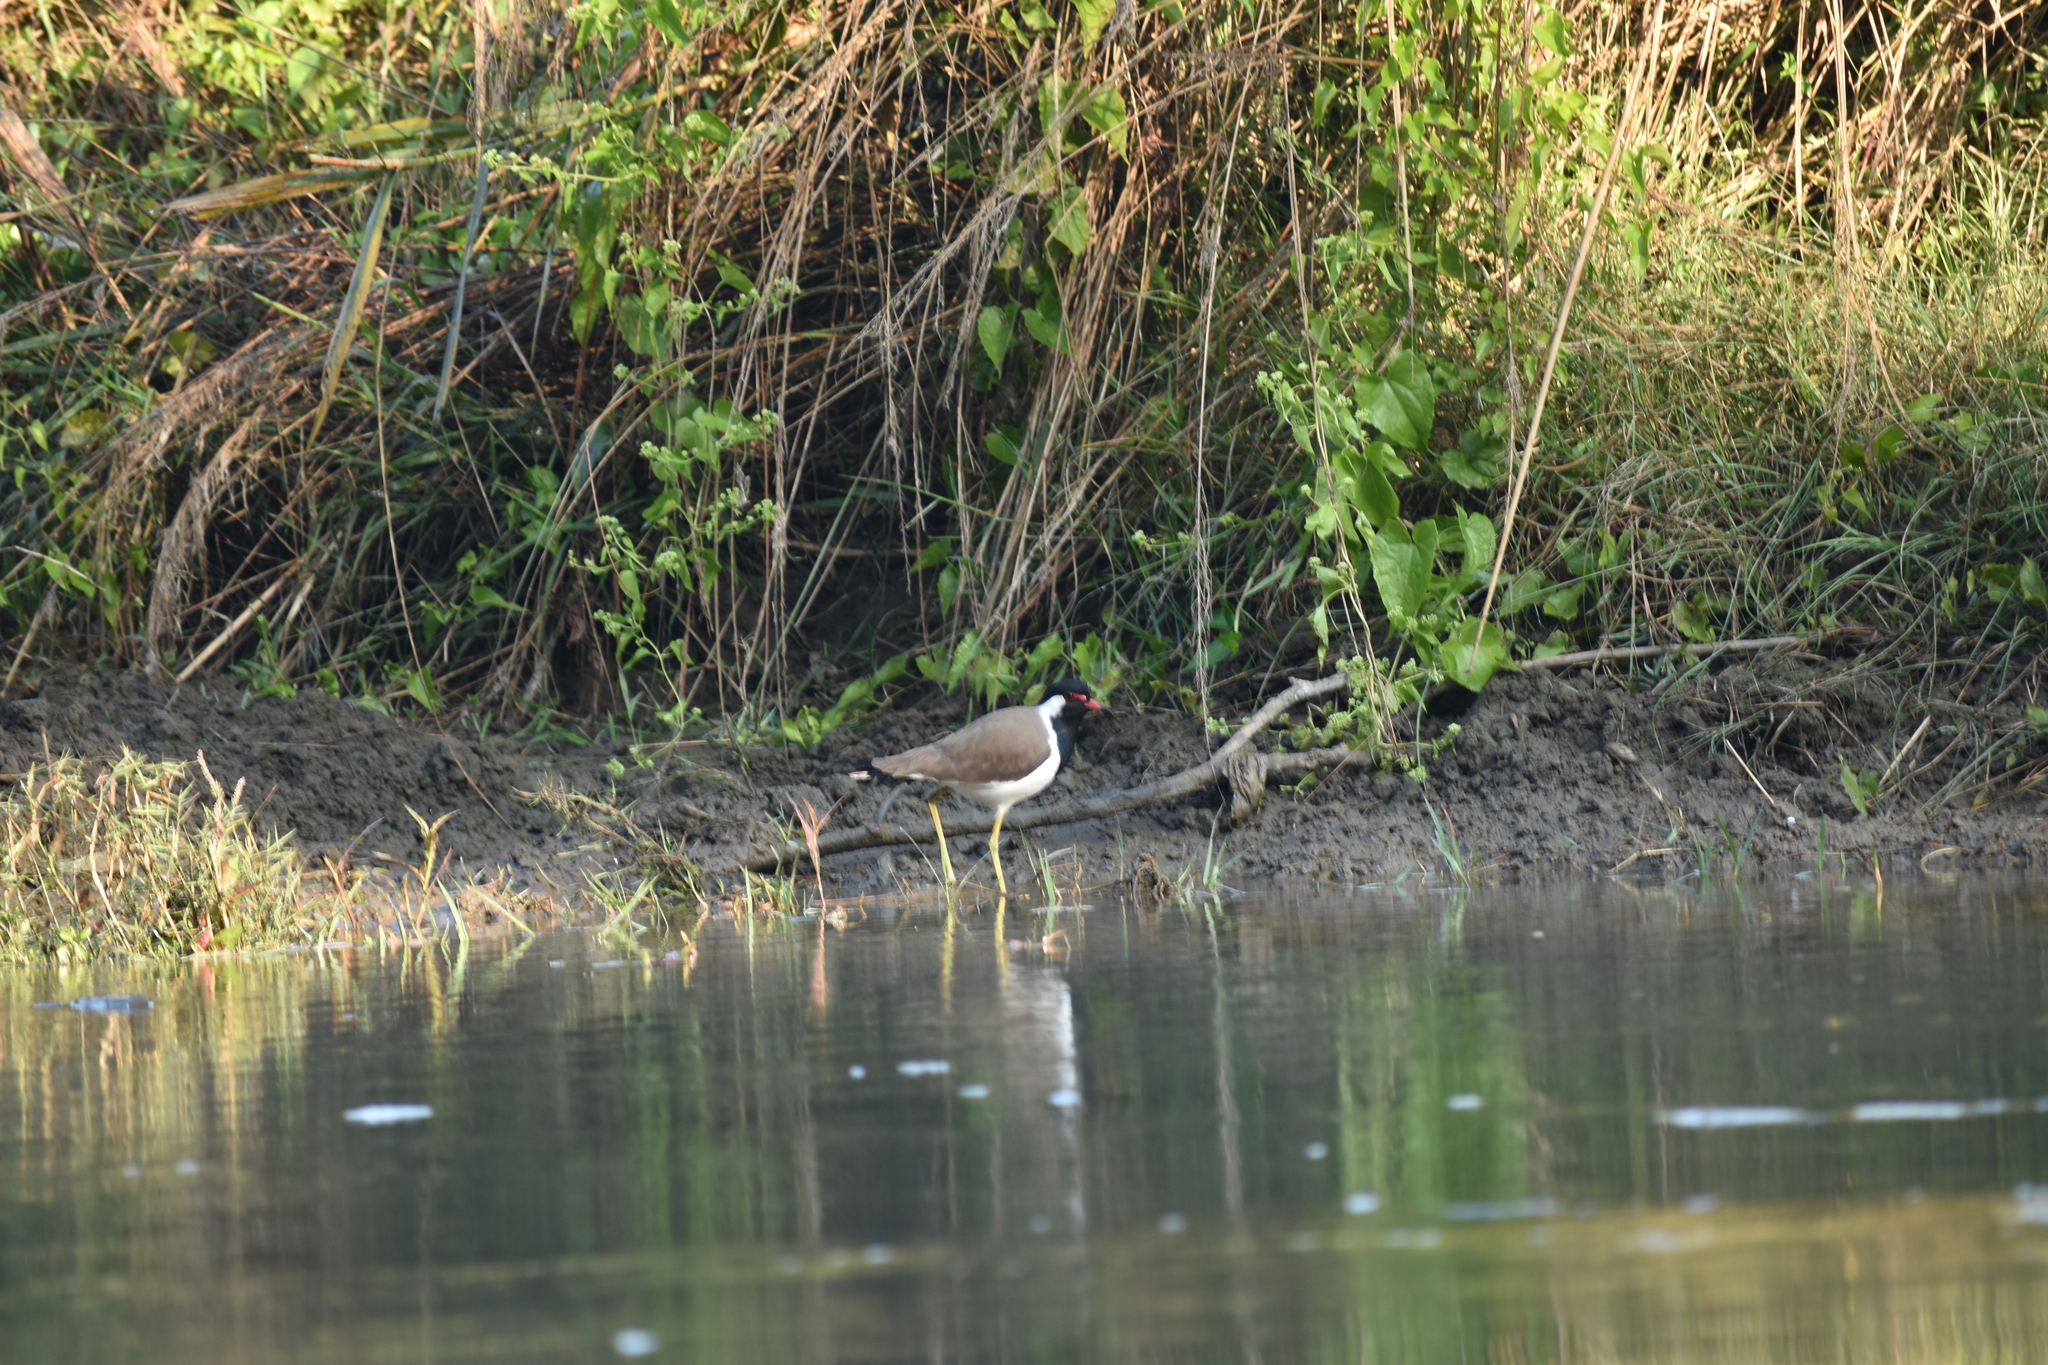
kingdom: Animalia
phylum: Chordata
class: Aves
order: Charadriiformes
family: Charadriidae
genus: Vanellus
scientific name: Vanellus indicus
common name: Red-wattled lapwing
